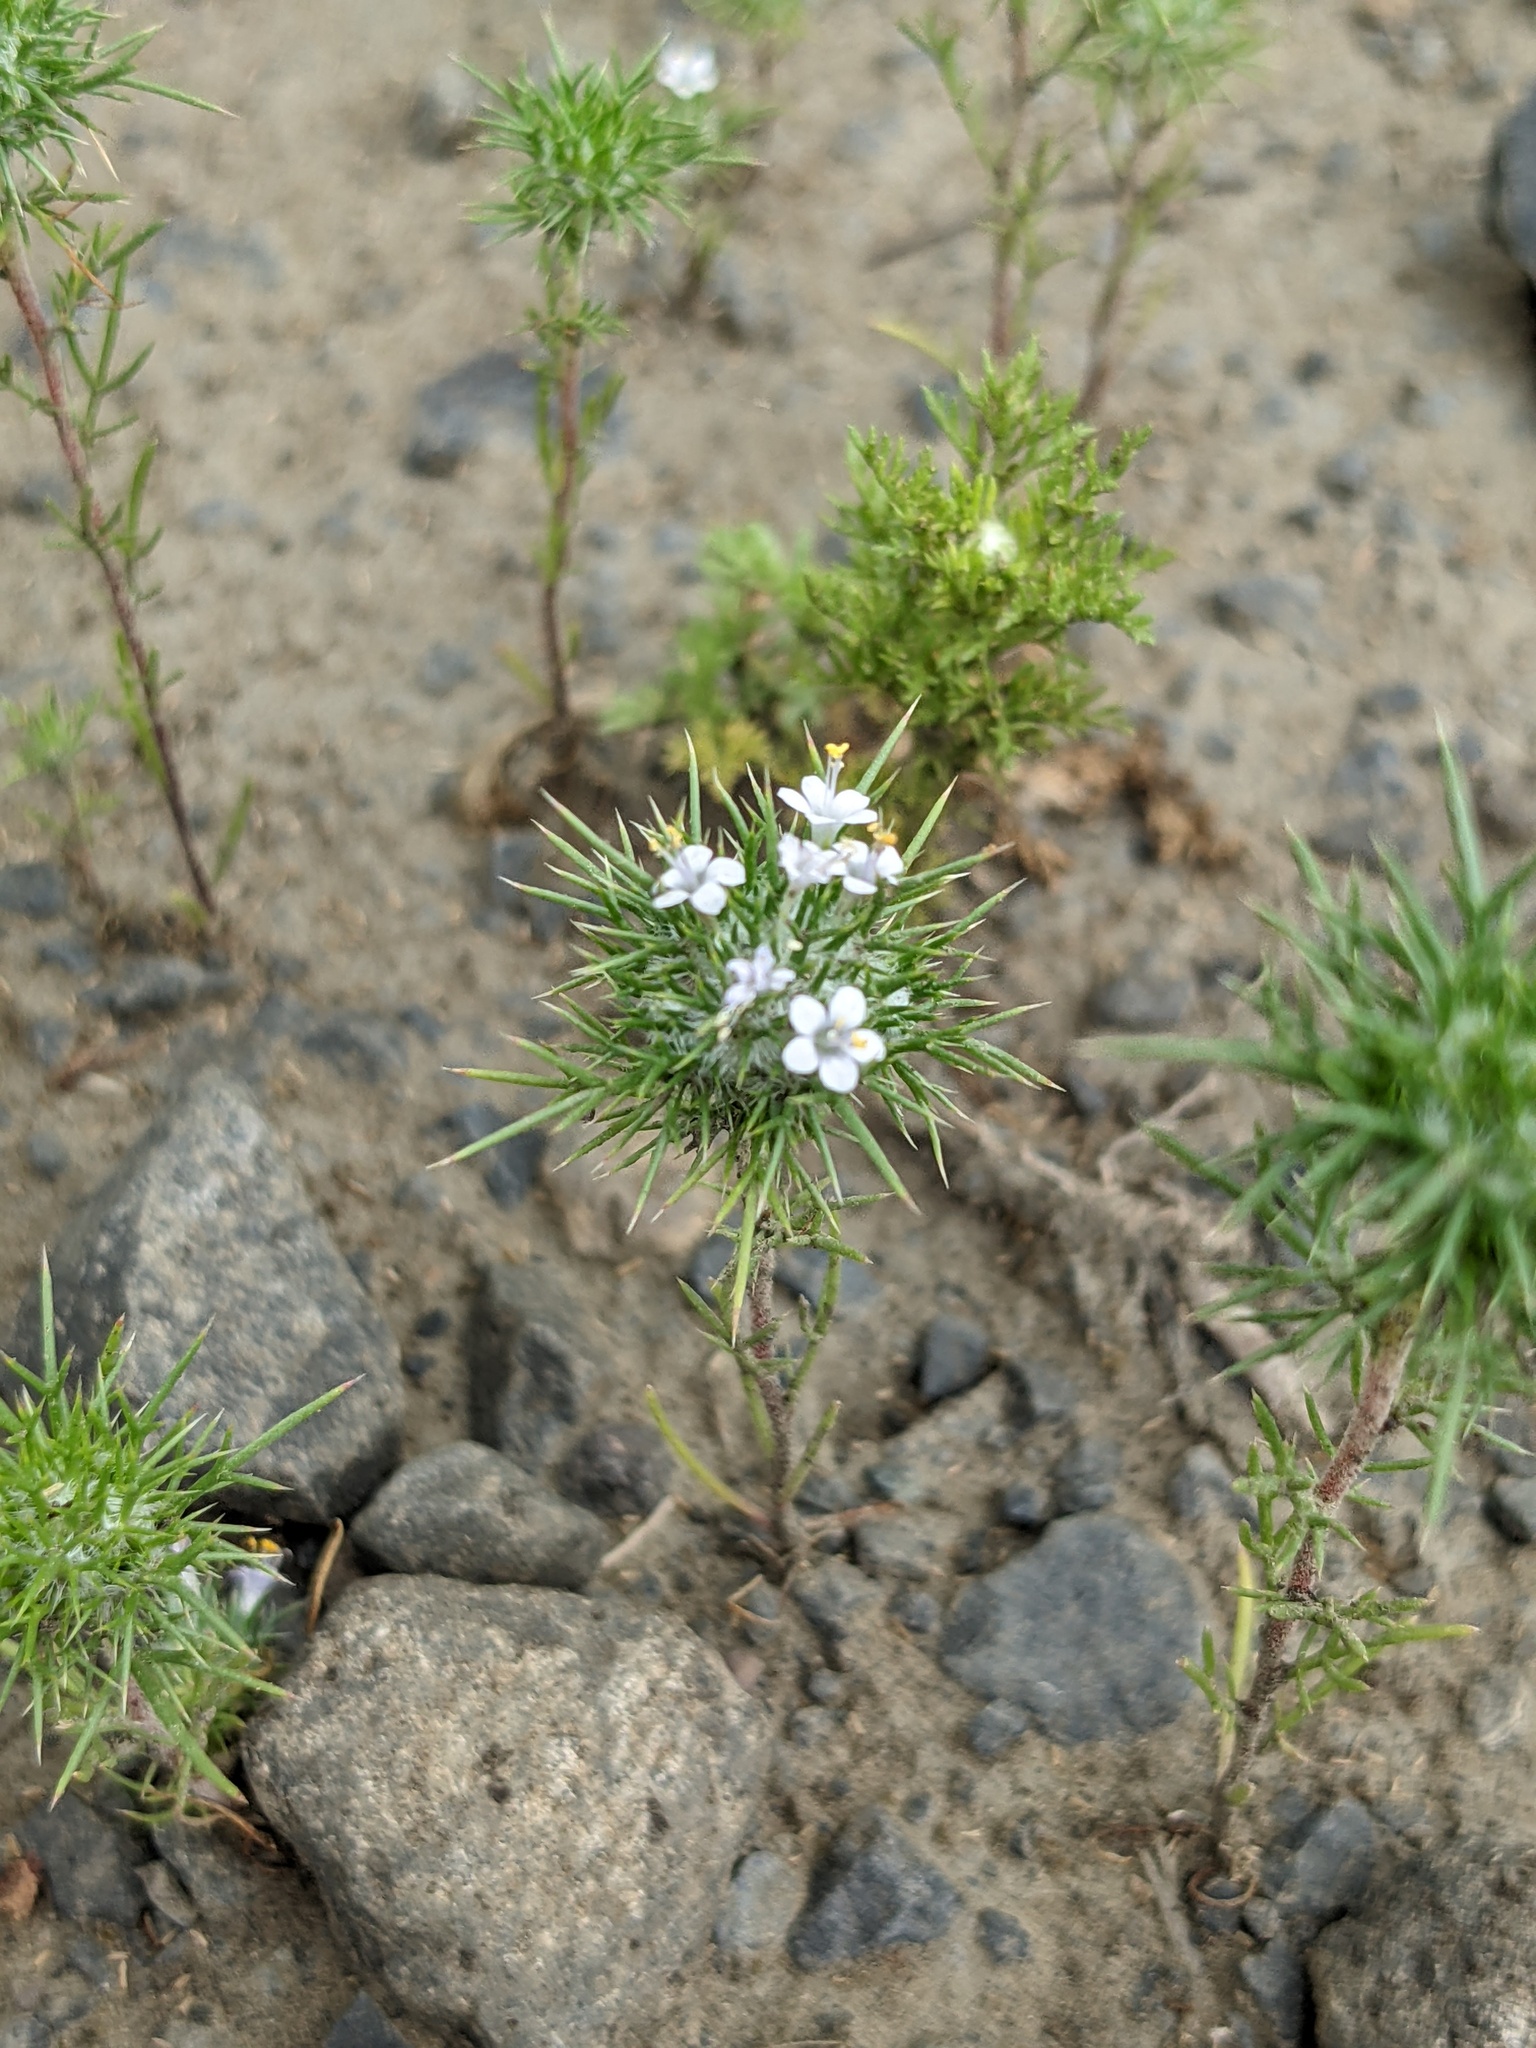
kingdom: Plantae
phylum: Tracheophyta
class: Magnoliopsida
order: Ericales
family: Polemoniaceae
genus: Navarretia
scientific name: Navarretia intertexta
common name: Needle-leaved navarretia
